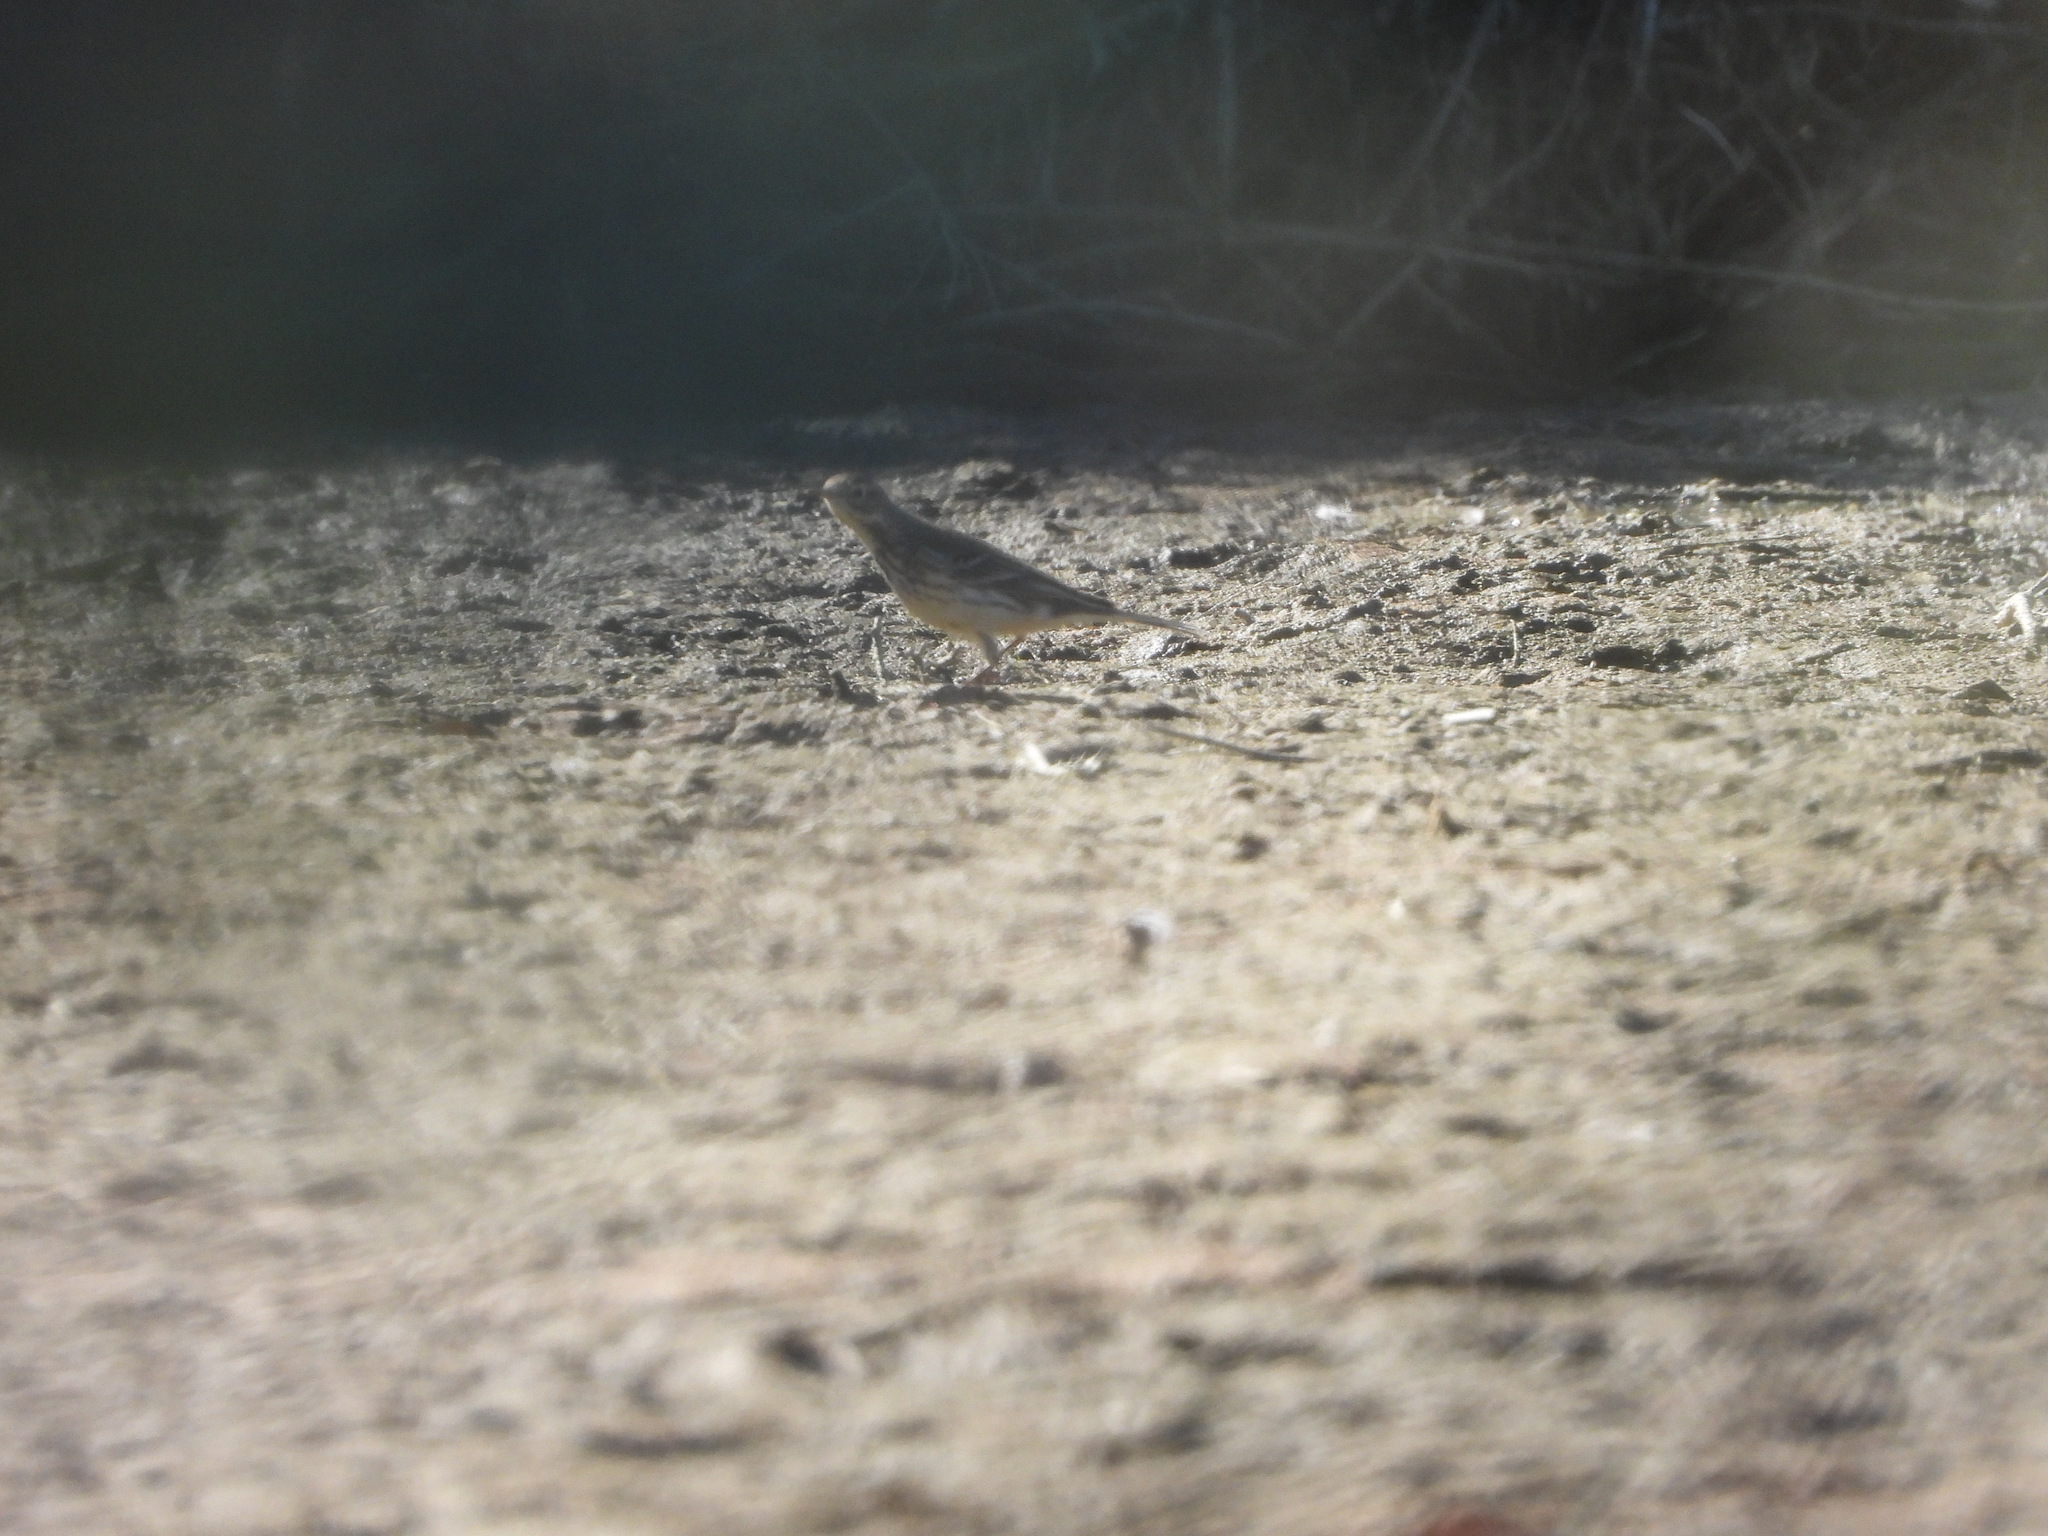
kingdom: Animalia
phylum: Chordata
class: Aves
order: Passeriformes
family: Motacillidae
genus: Anthus
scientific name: Anthus rubescens
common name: Buff-bellied pipit
